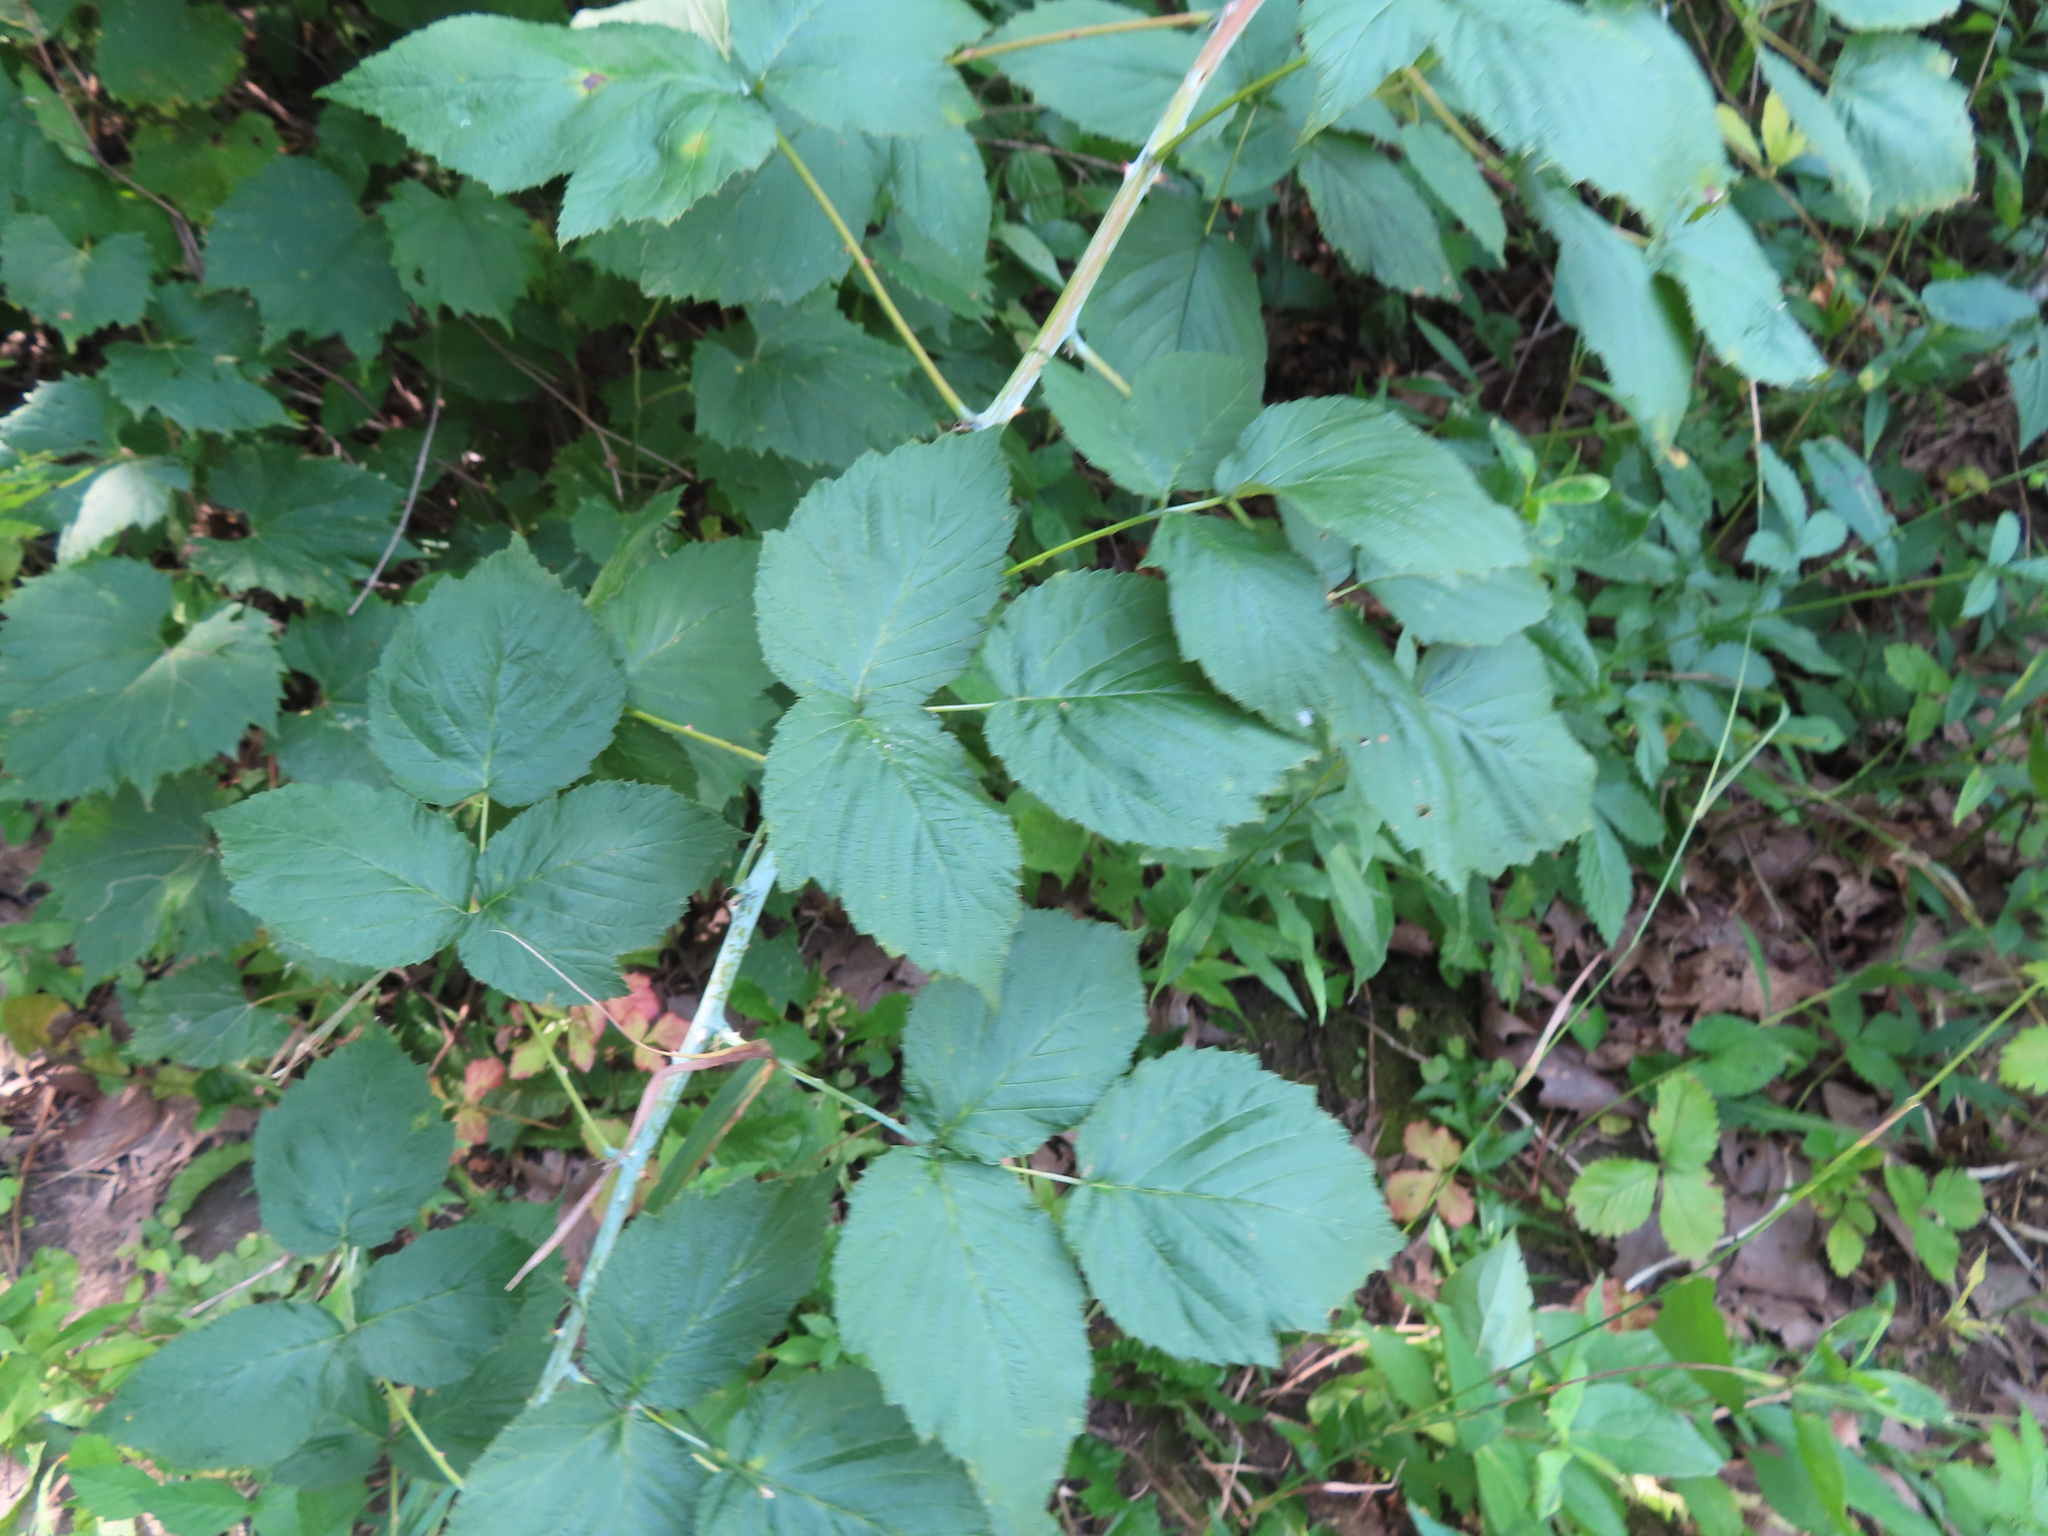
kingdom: Plantae
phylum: Tracheophyta
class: Magnoliopsida
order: Rosales
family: Rosaceae
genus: Rubus
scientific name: Rubus occidentalis
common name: Black raspberry
